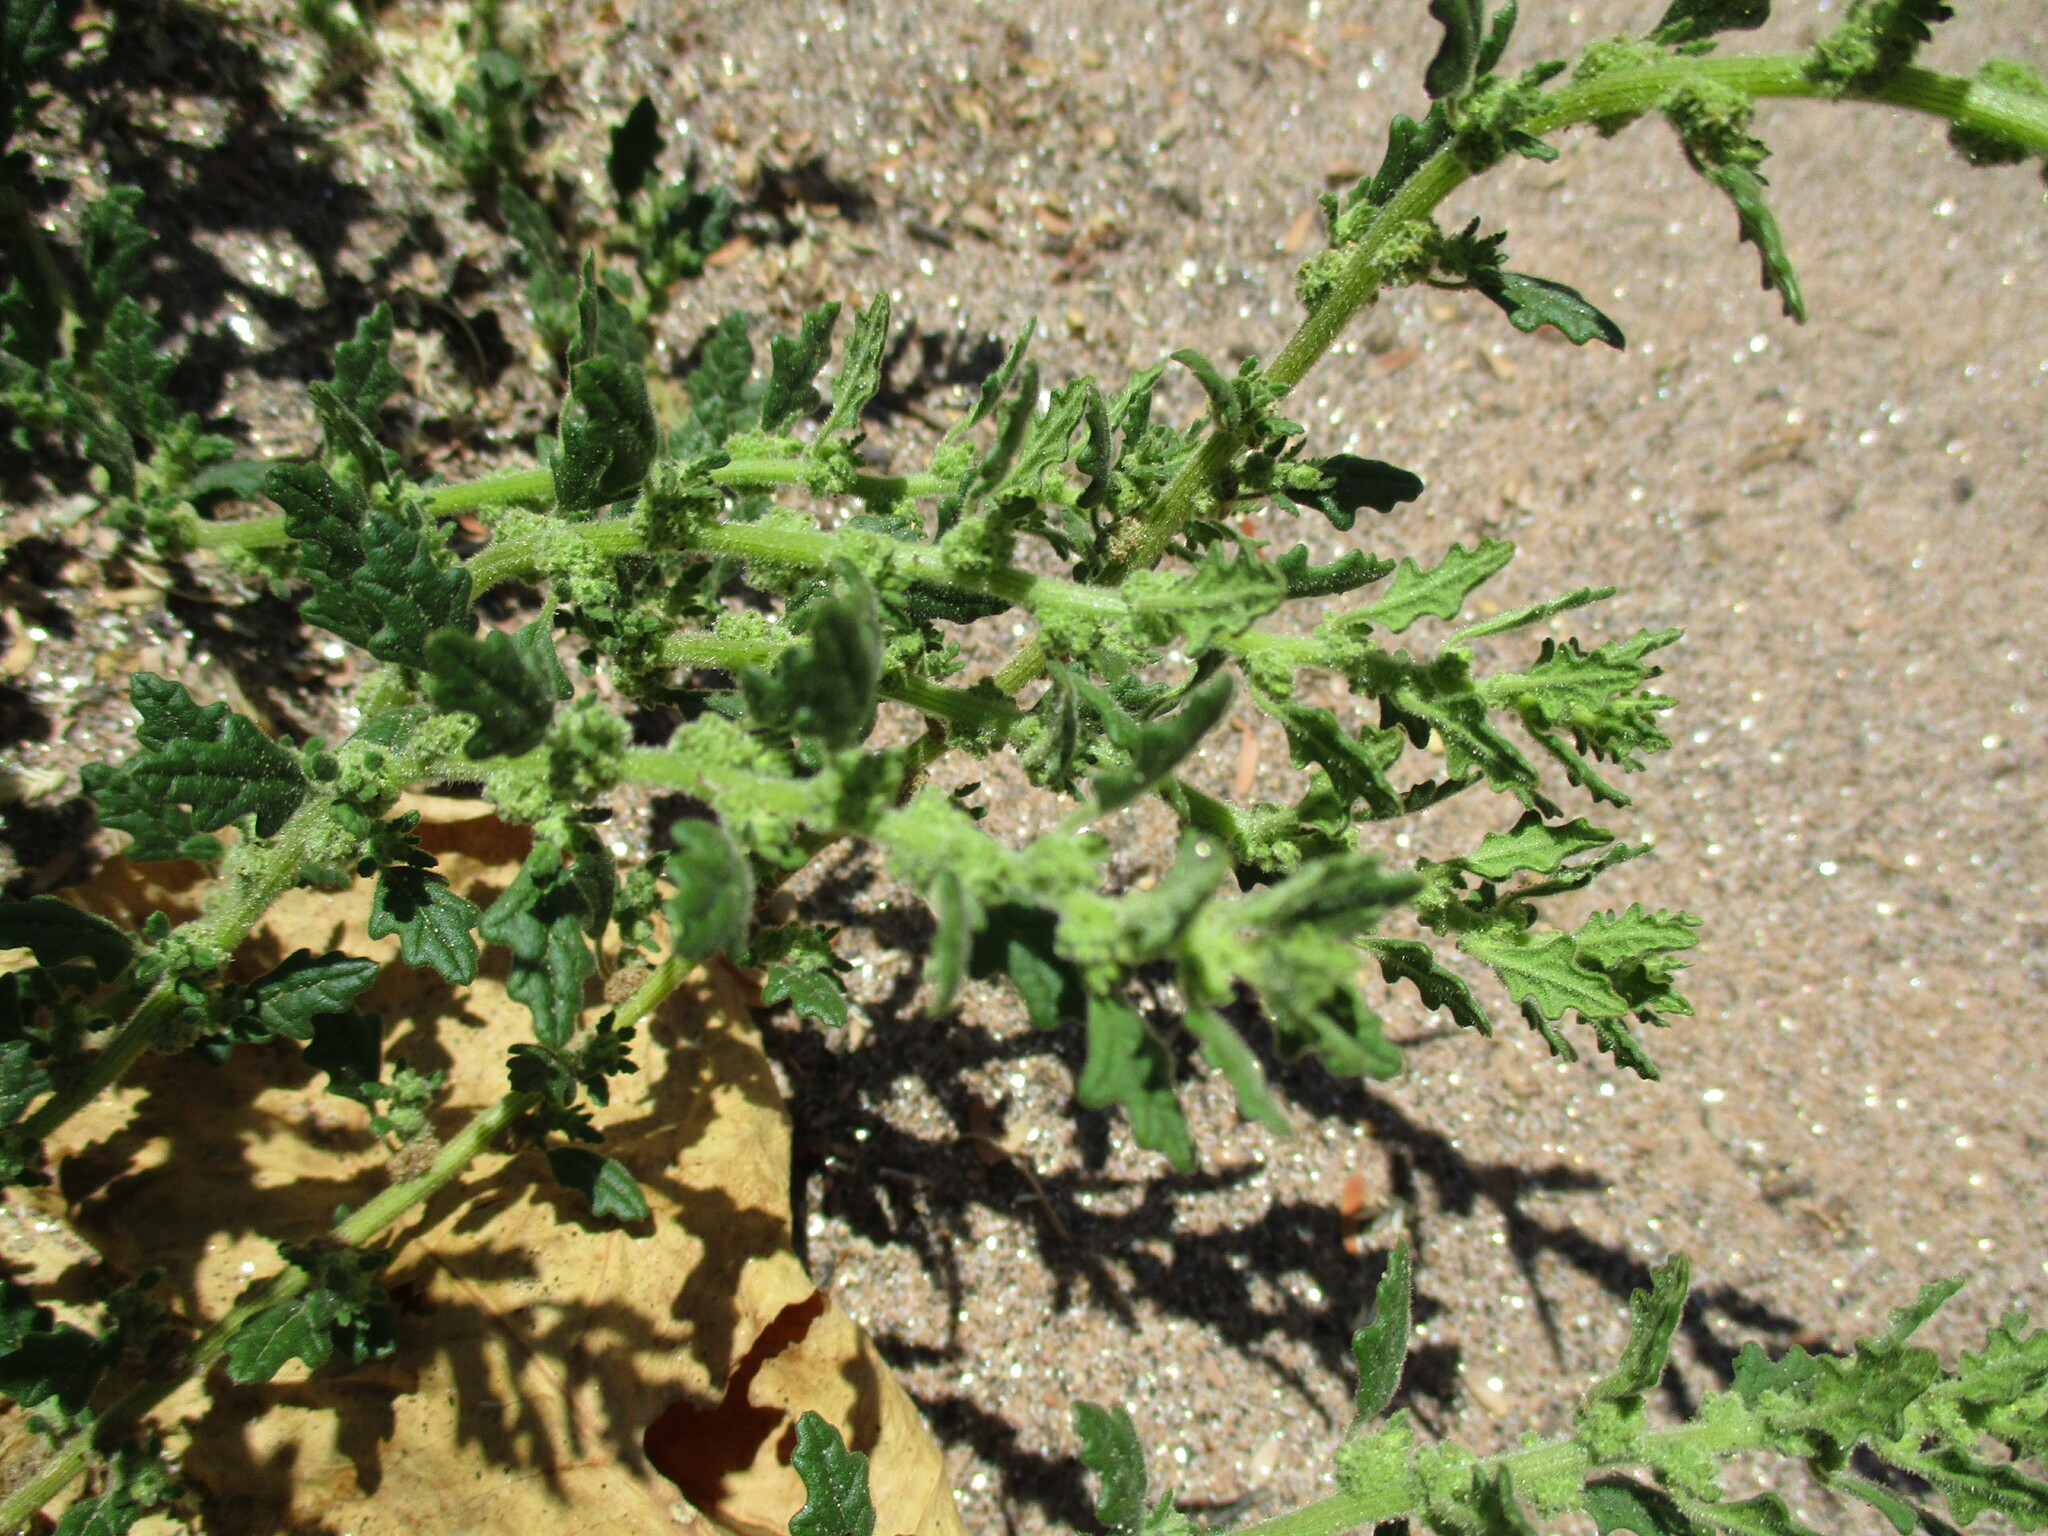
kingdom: Plantae
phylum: Tracheophyta
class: Magnoliopsida
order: Caryophyllales
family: Amaranthaceae
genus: Dysphania
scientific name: Dysphania pumilio
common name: Clammy goosefoot
